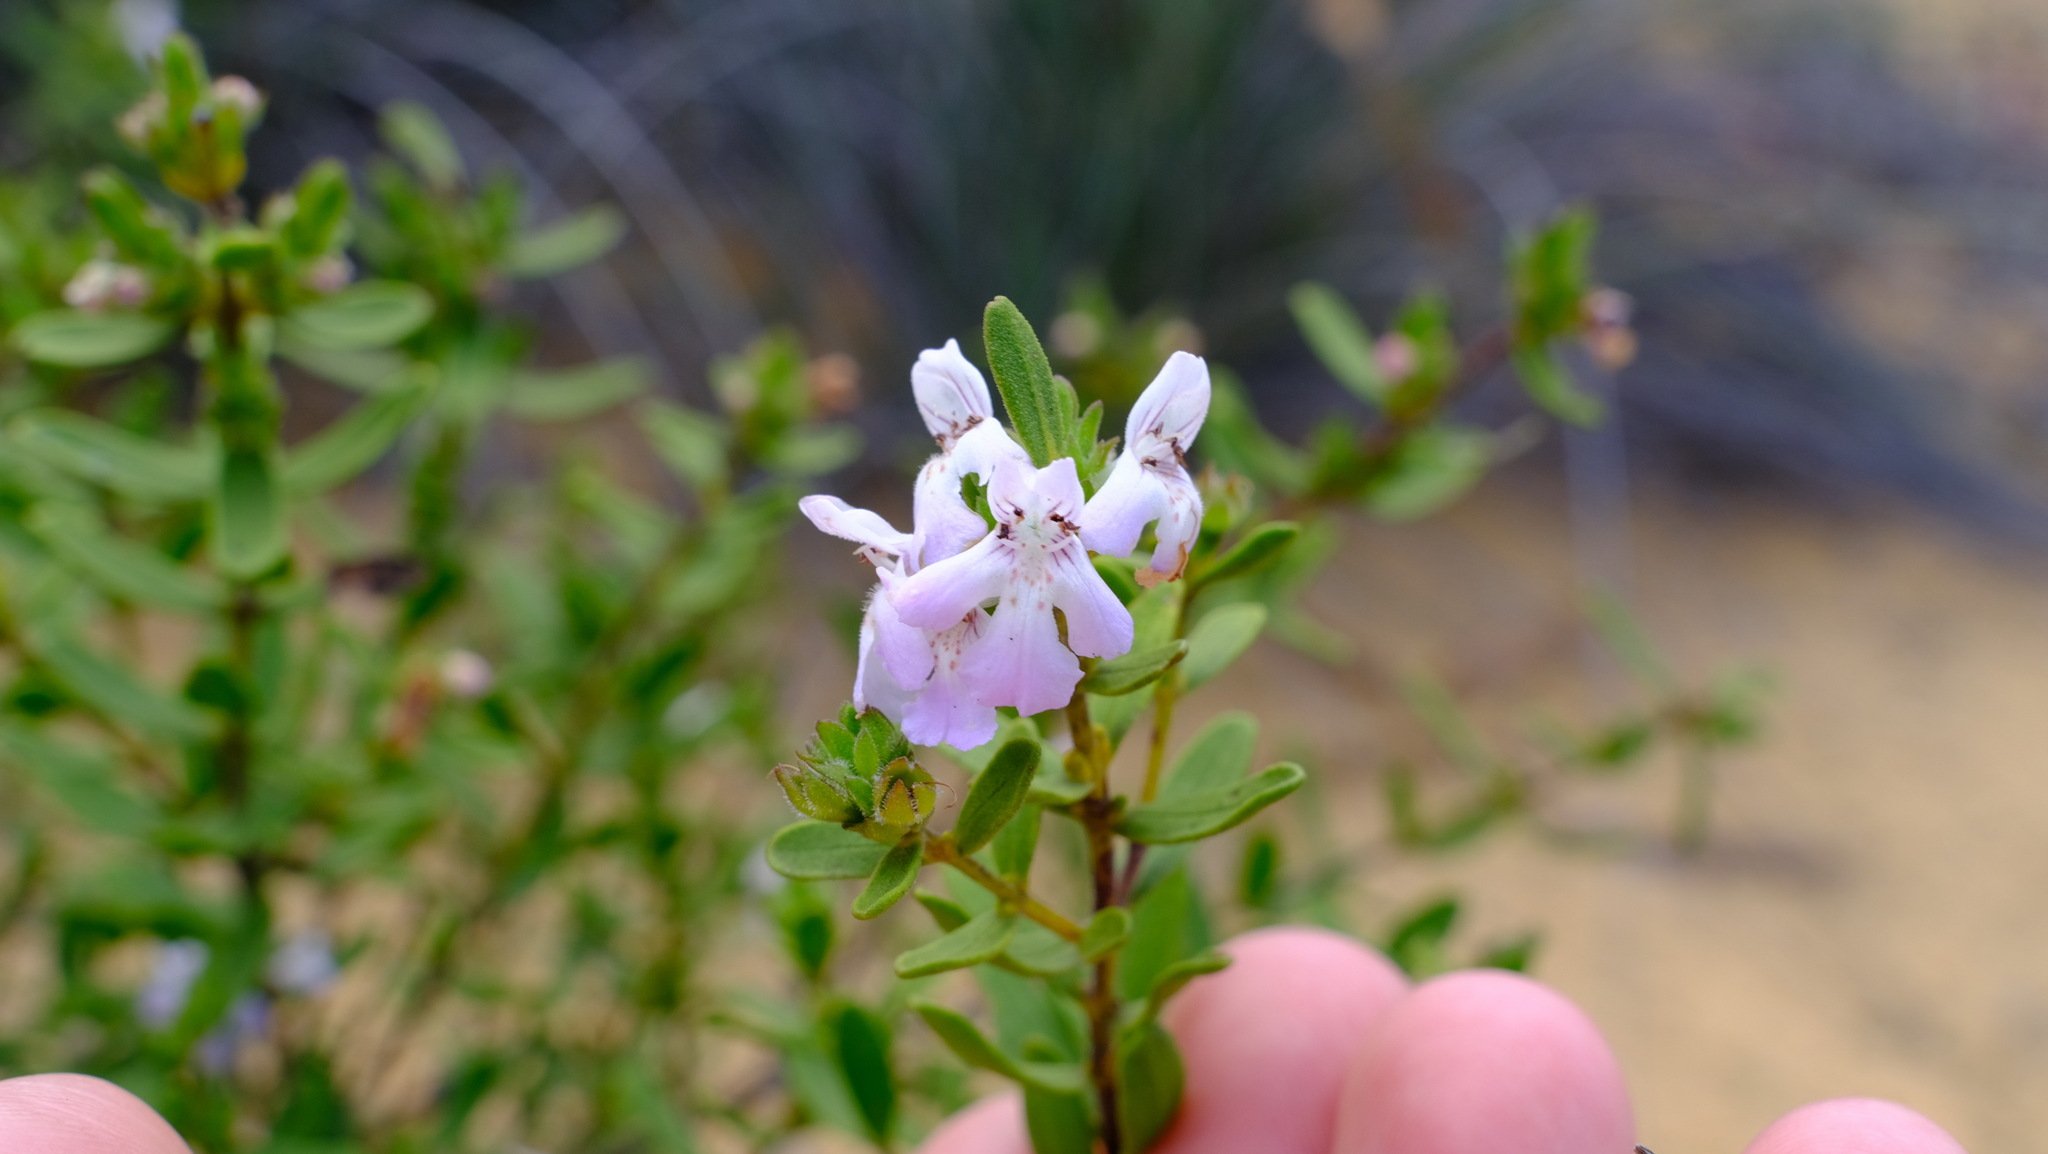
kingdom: Plantae
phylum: Tracheophyta
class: Magnoliopsida
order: Lamiales
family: Lamiaceae
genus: Hemigenia
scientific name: Hemigenia scabra
